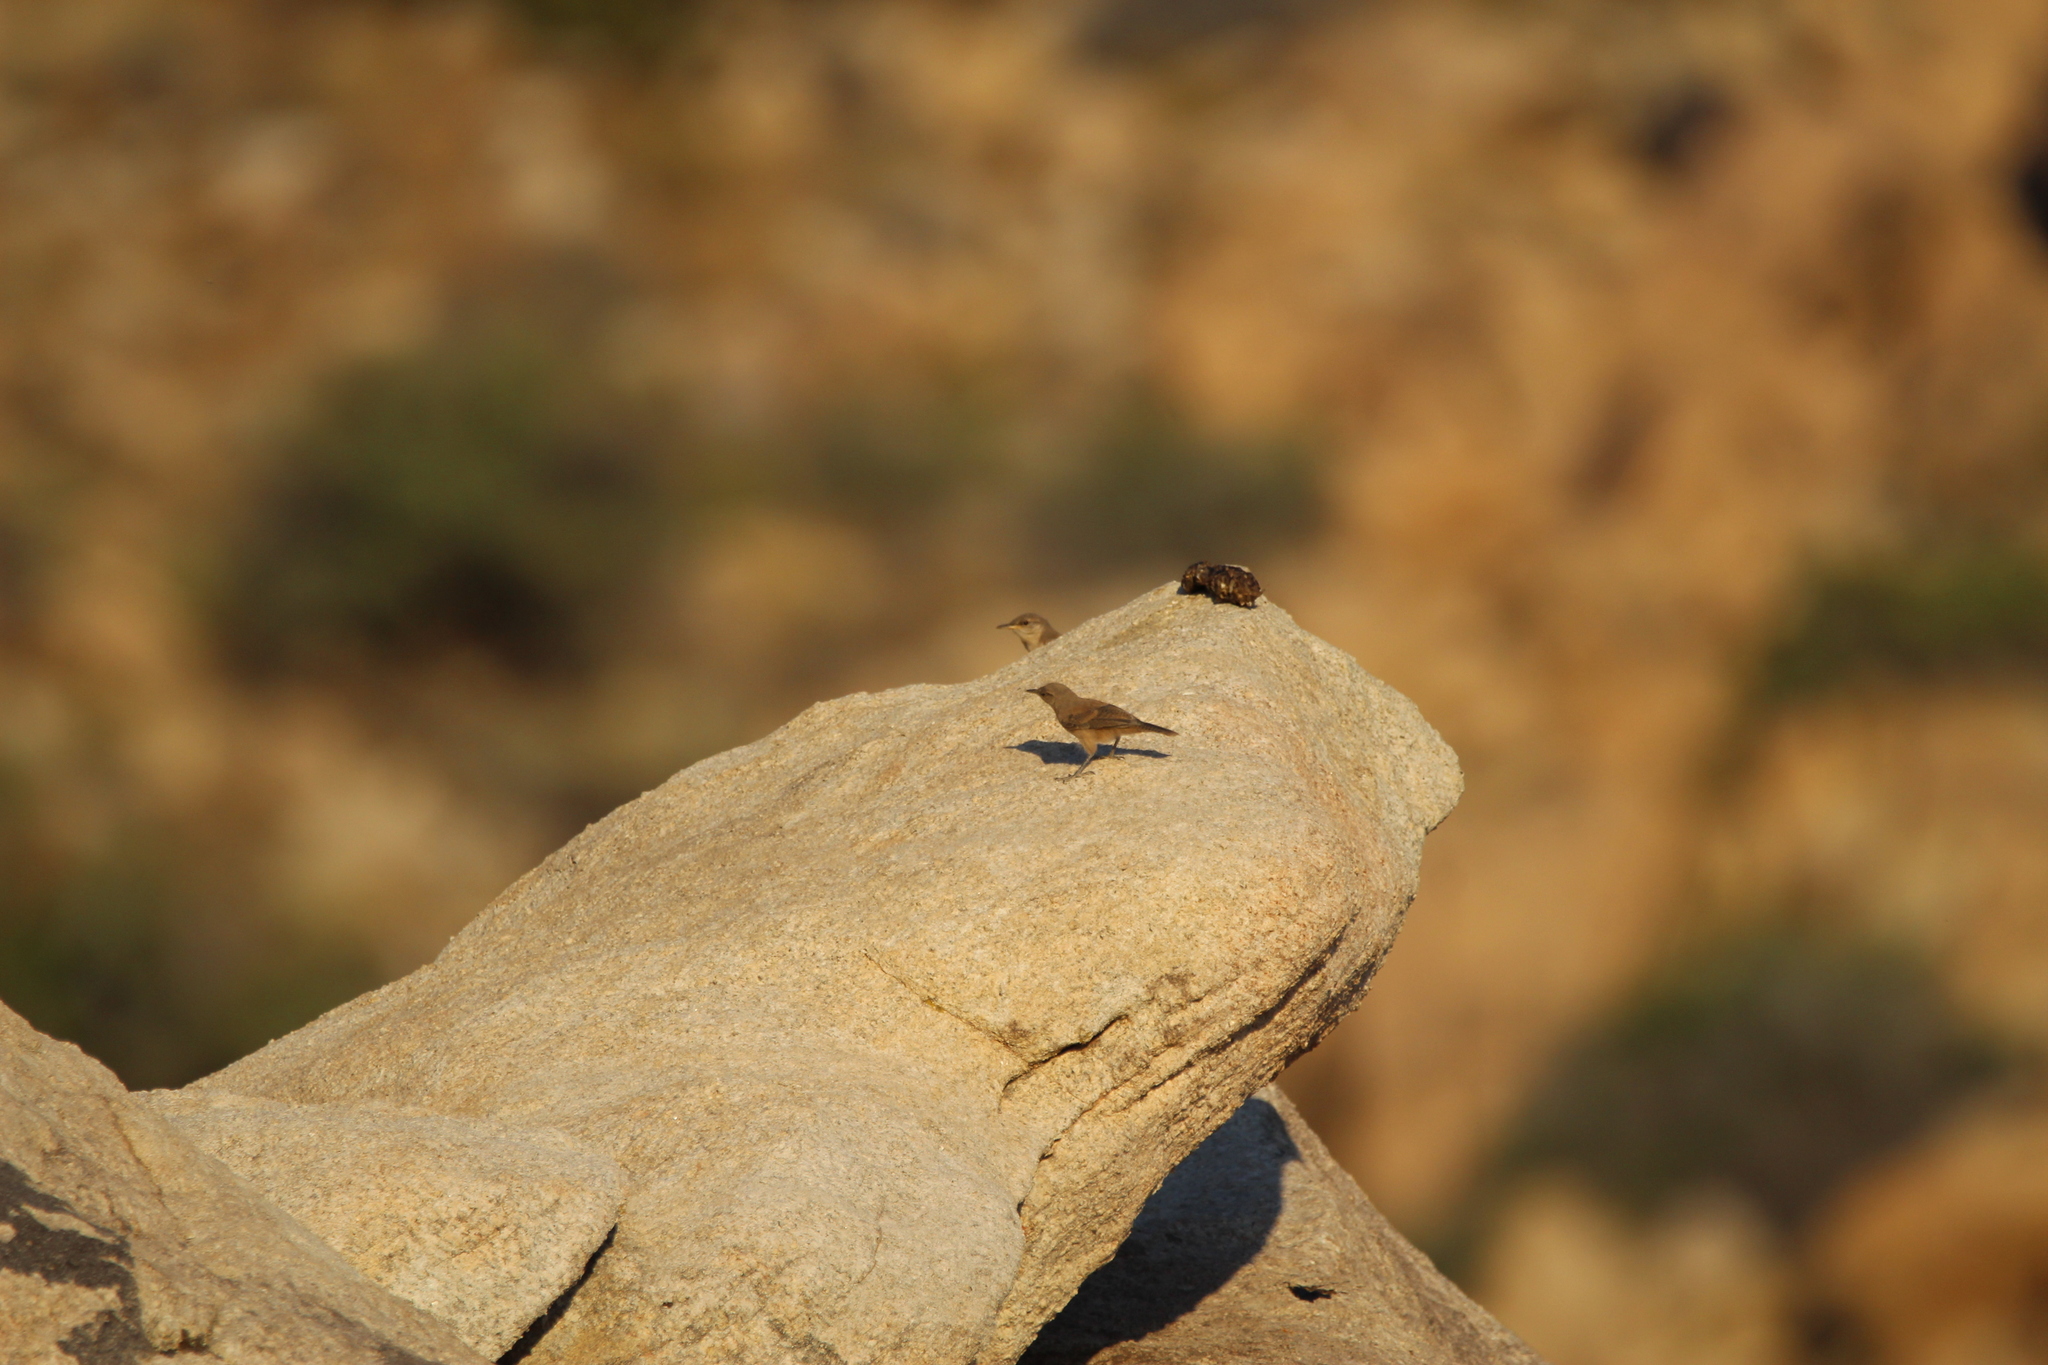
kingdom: Animalia
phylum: Chordata
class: Aves
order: Passeriformes
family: Troglodytidae
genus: Salpinctes
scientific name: Salpinctes obsoletus
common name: Rock wren
